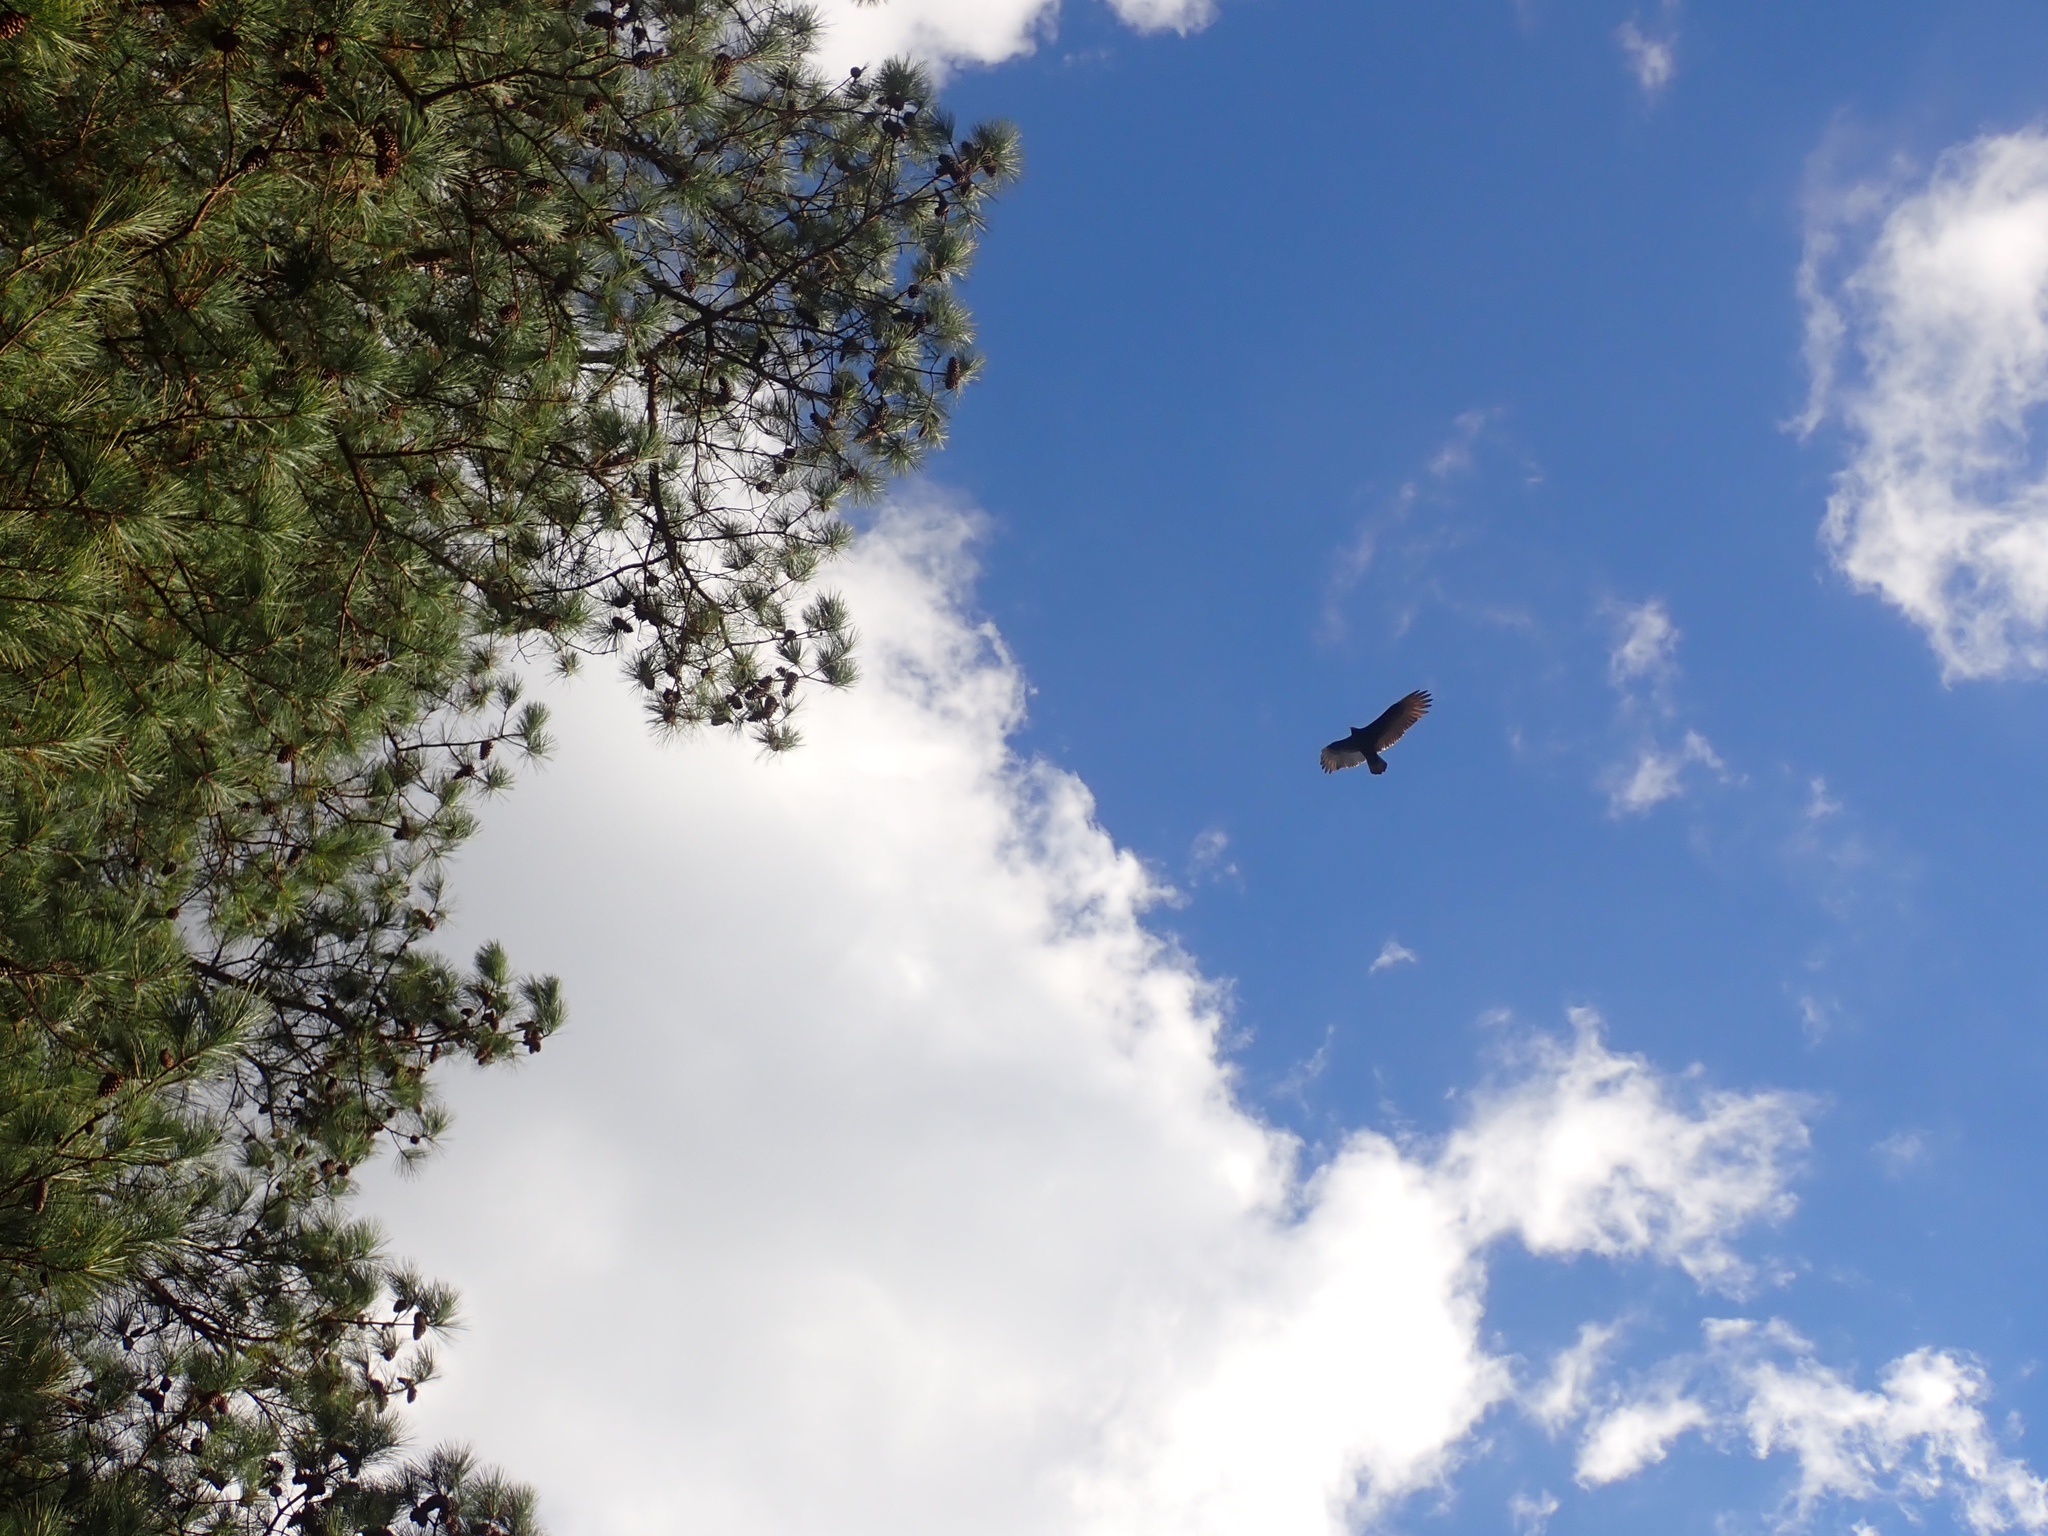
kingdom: Animalia
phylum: Chordata
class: Aves
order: Accipitriformes
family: Cathartidae
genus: Cathartes
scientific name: Cathartes aura
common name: Turkey vulture
